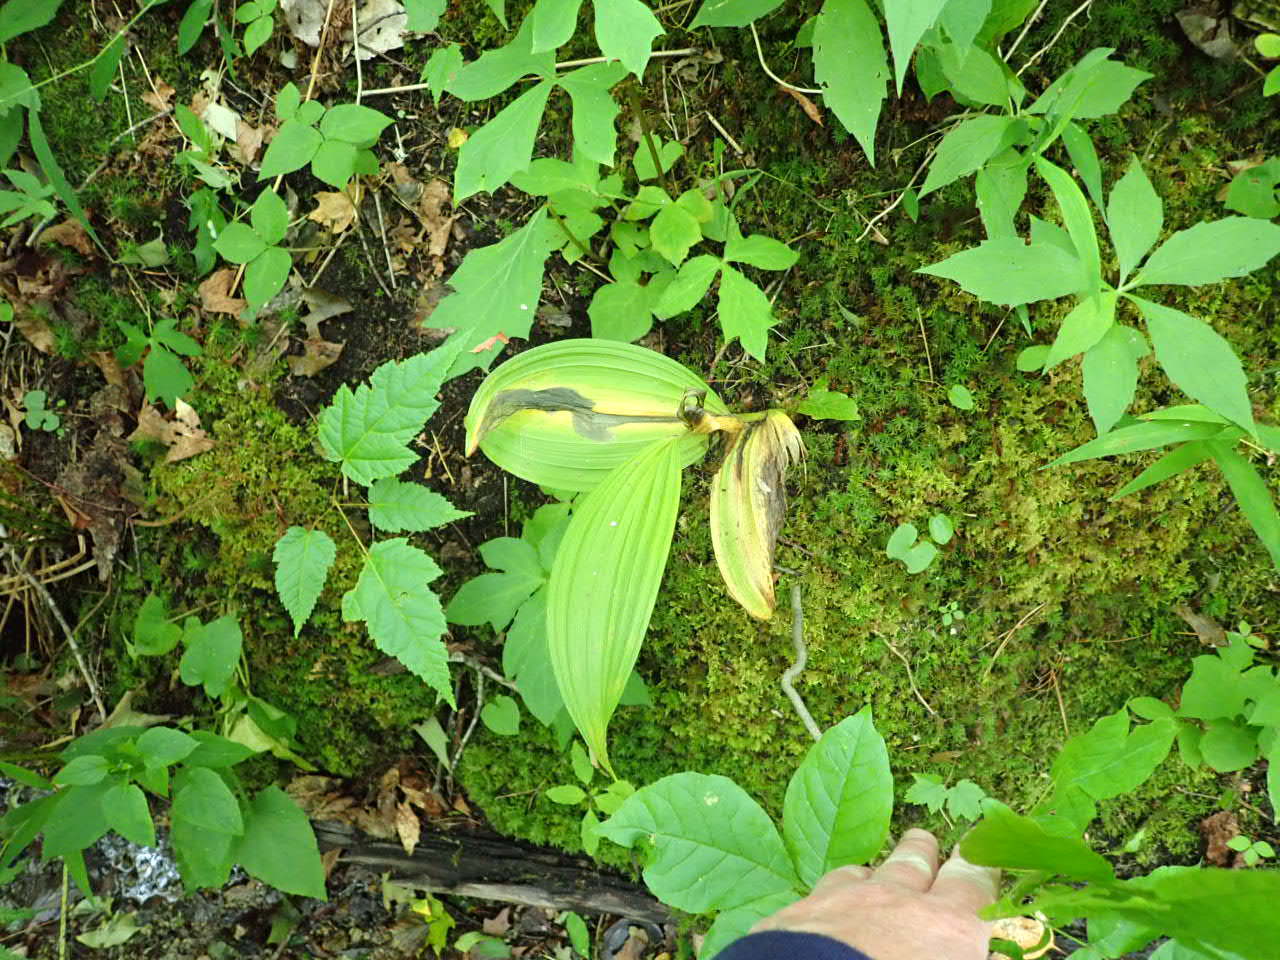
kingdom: Plantae
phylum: Tracheophyta
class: Liliopsida
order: Liliales
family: Melanthiaceae
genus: Veratrum
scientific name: Veratrum viride
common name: American false hellebore
